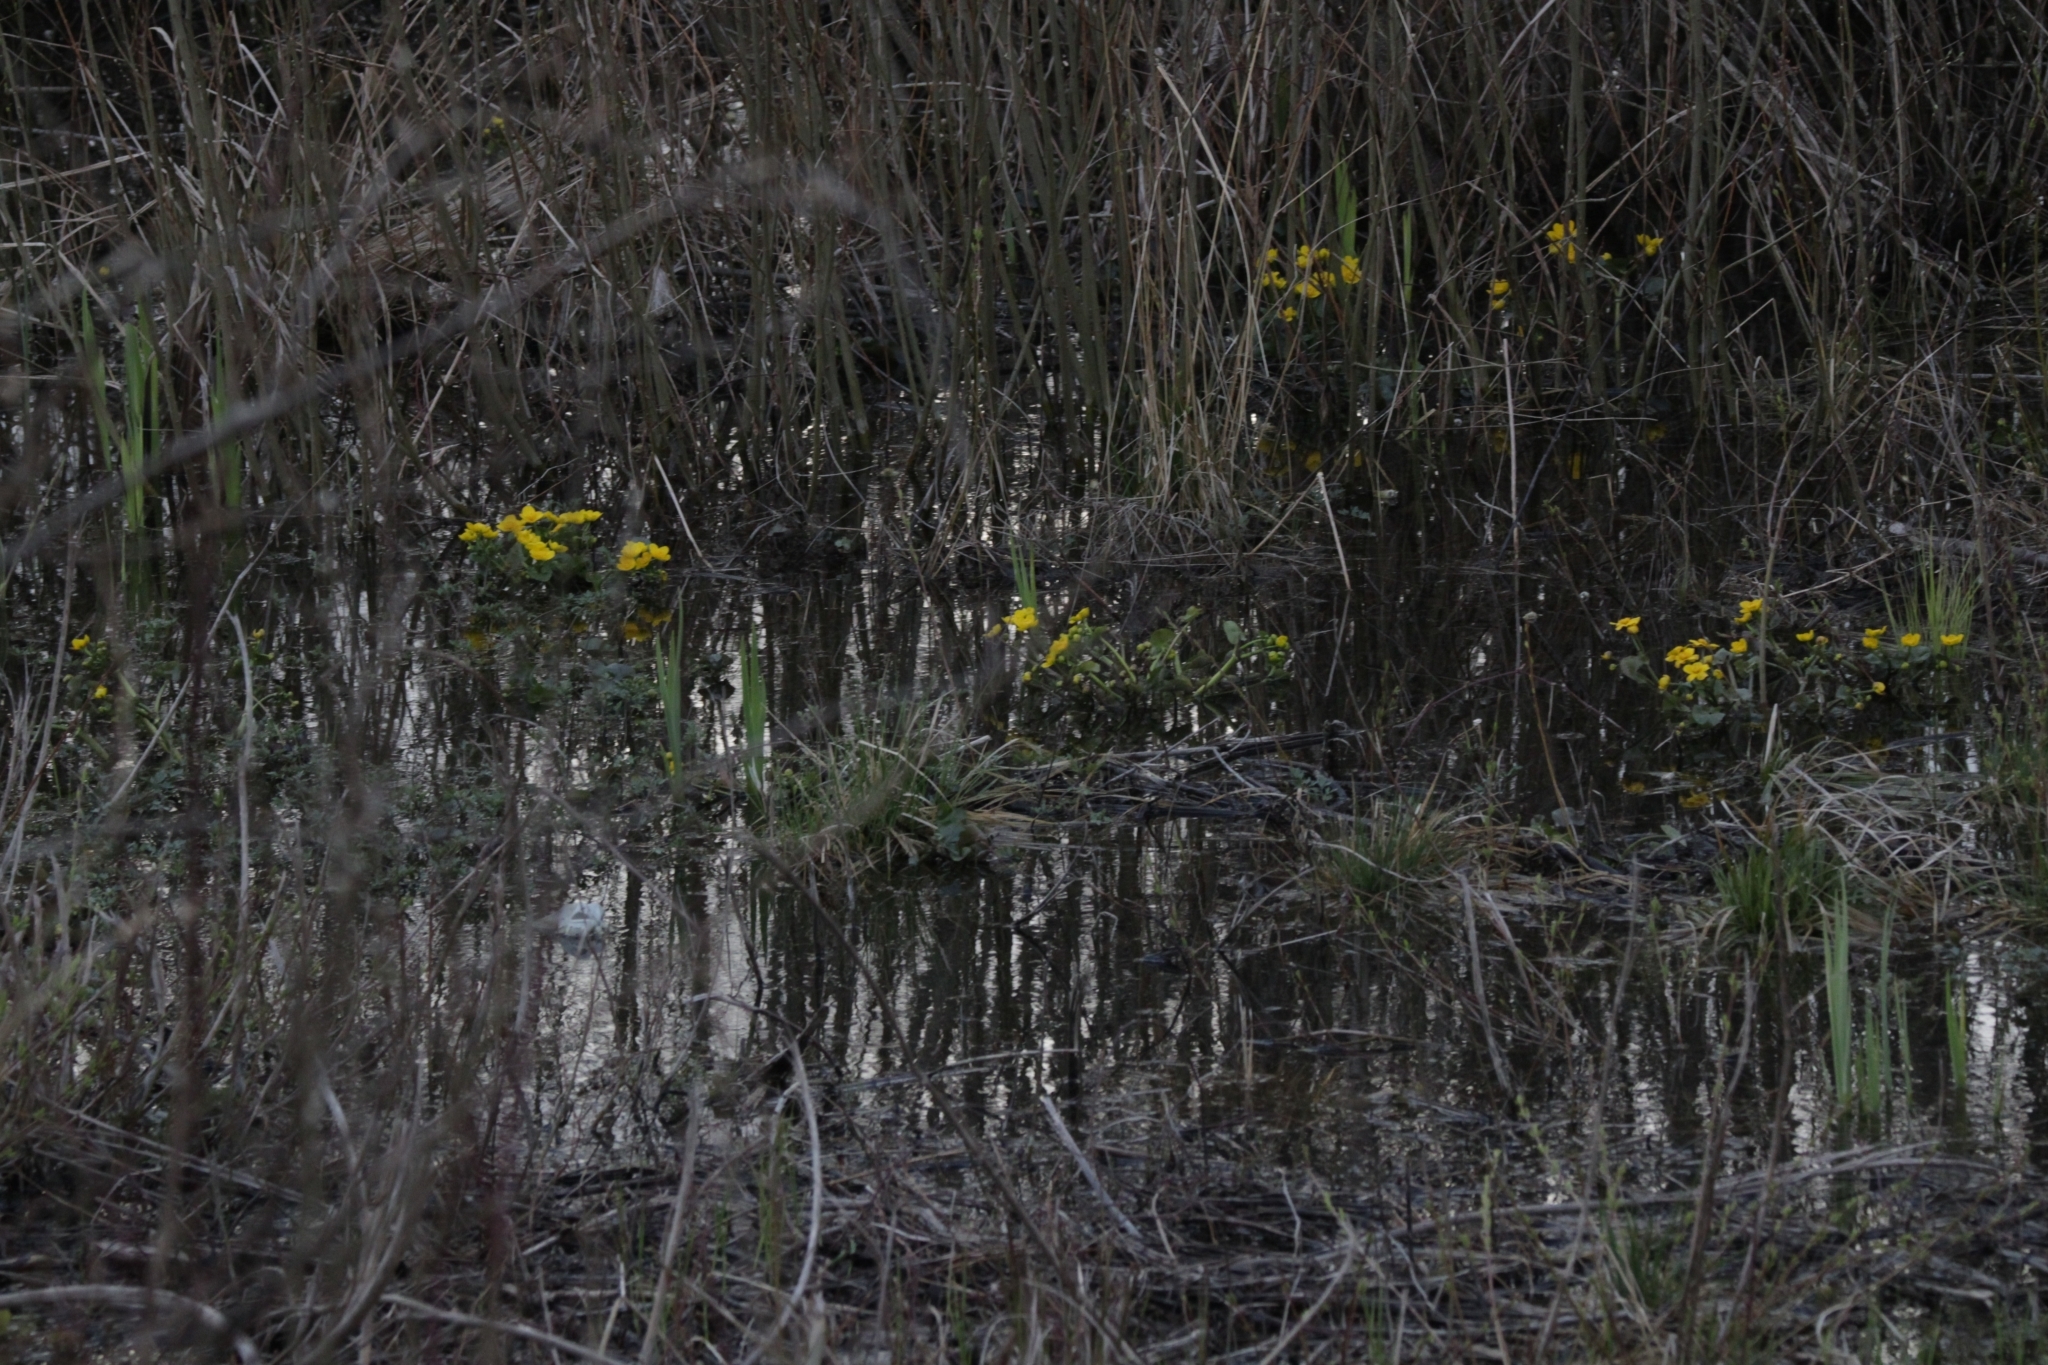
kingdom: Plantae
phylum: Tracheophyta
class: Magnoliopsida
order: Ranunculales
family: Ranunculaceae
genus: Caltha
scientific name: Caltha palustris
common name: Marsh marigold
